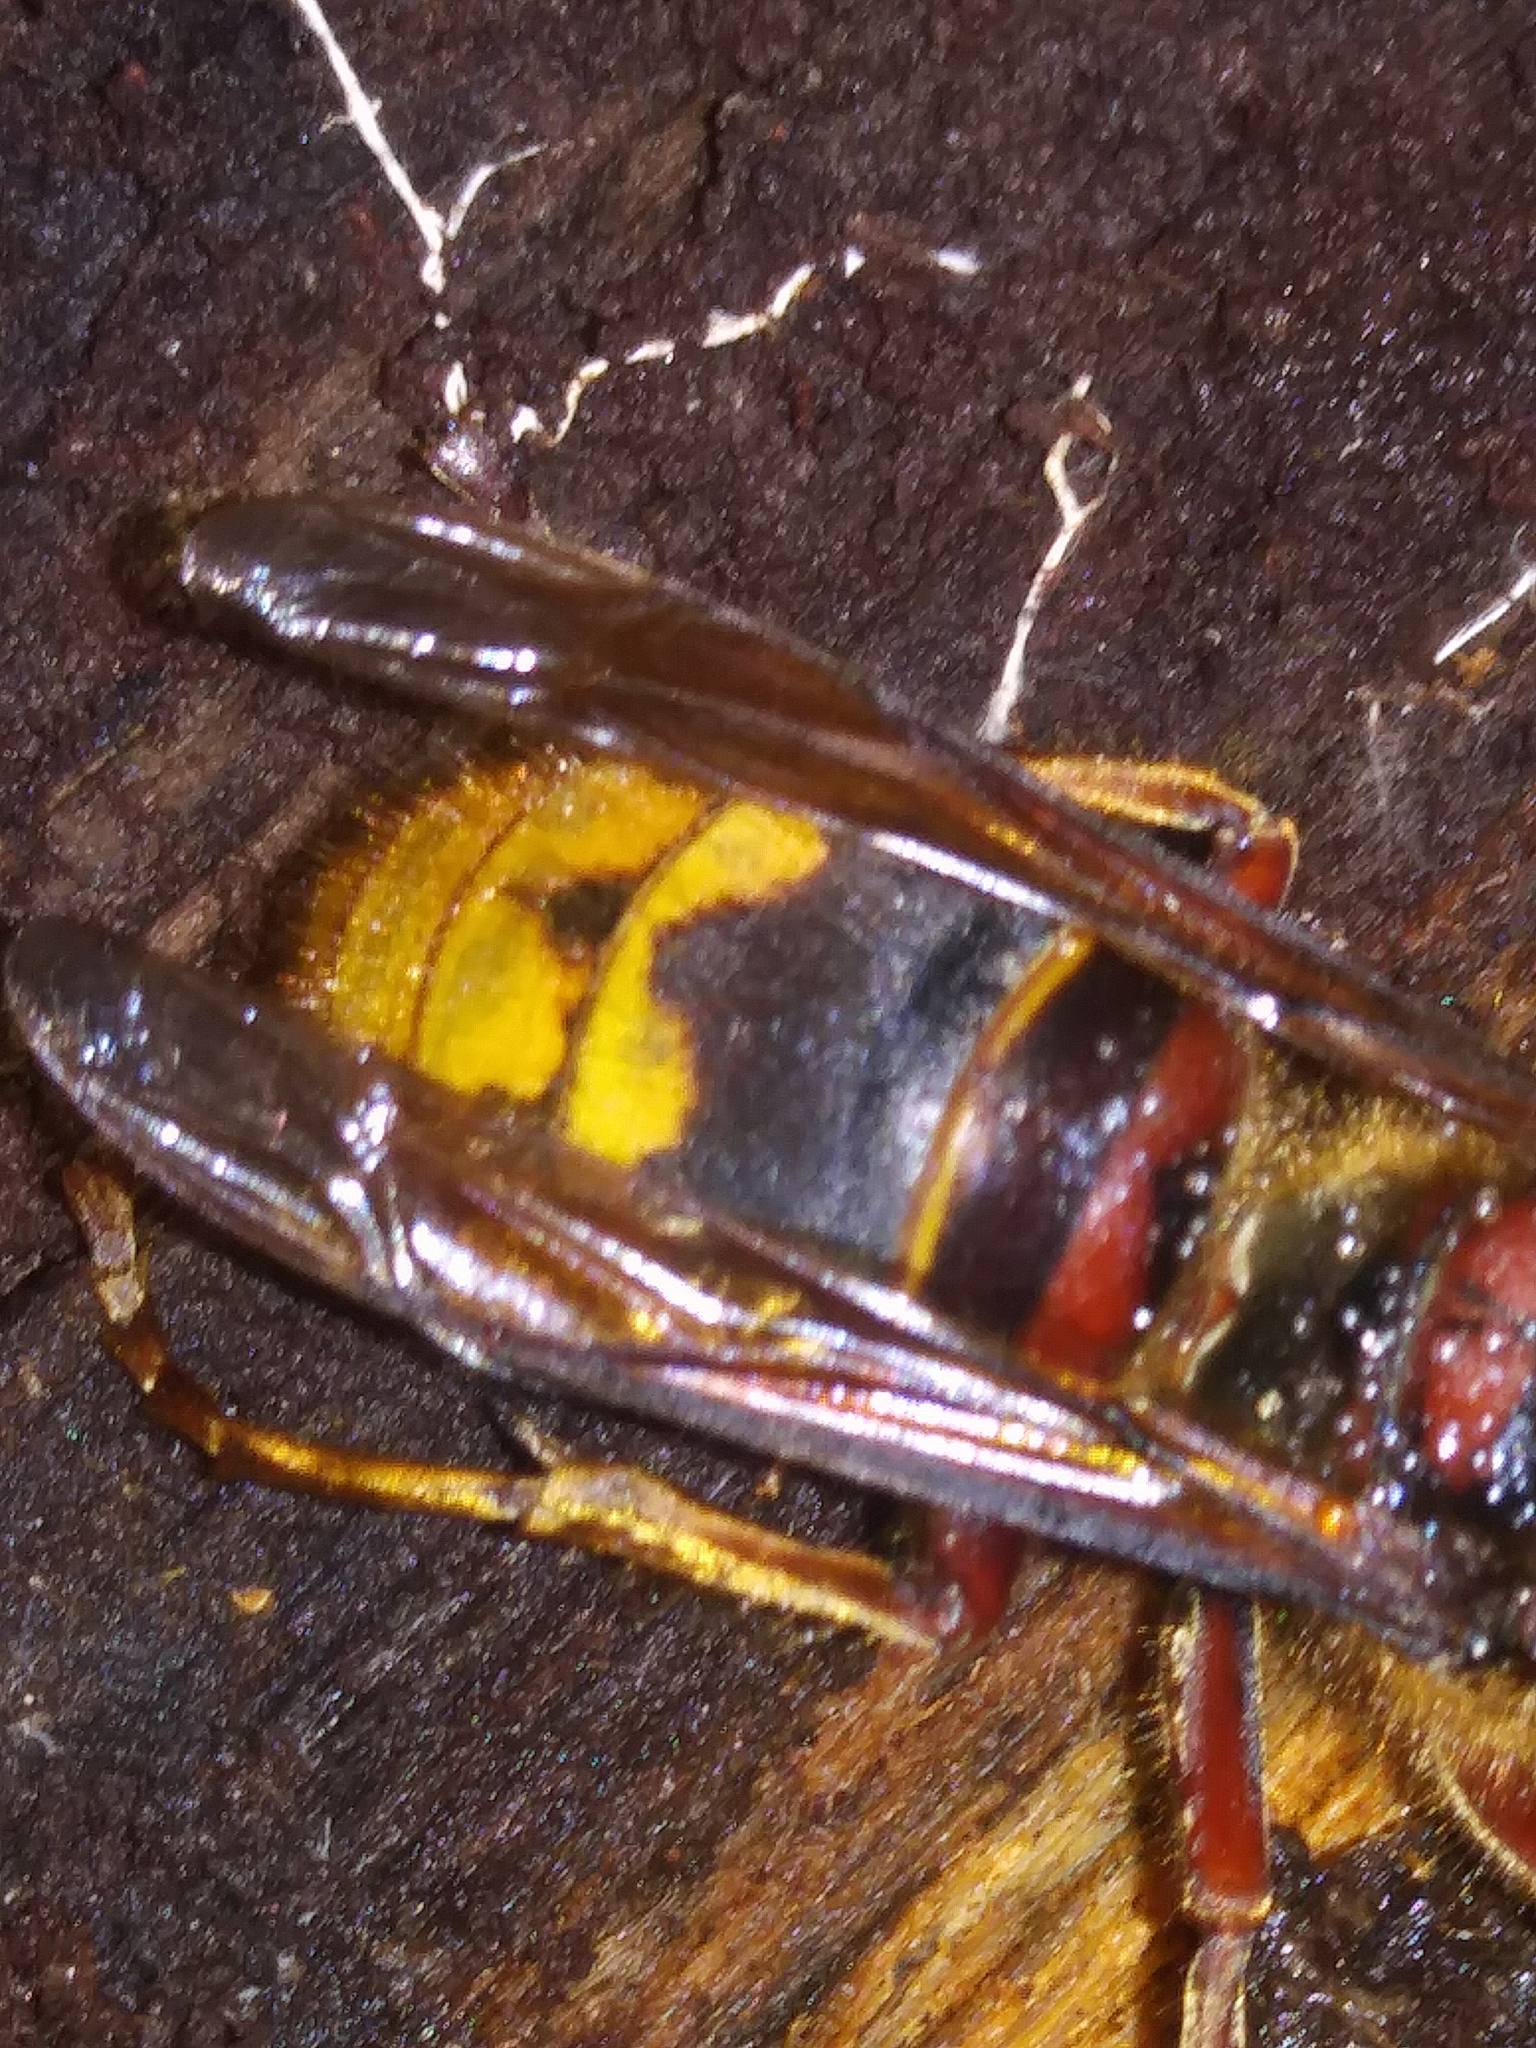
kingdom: Animalia
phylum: Arthropoda
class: Insecta
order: Hymenoptera
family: Vespidae
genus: Vespa
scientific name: Vespa crabro
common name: Hornet
